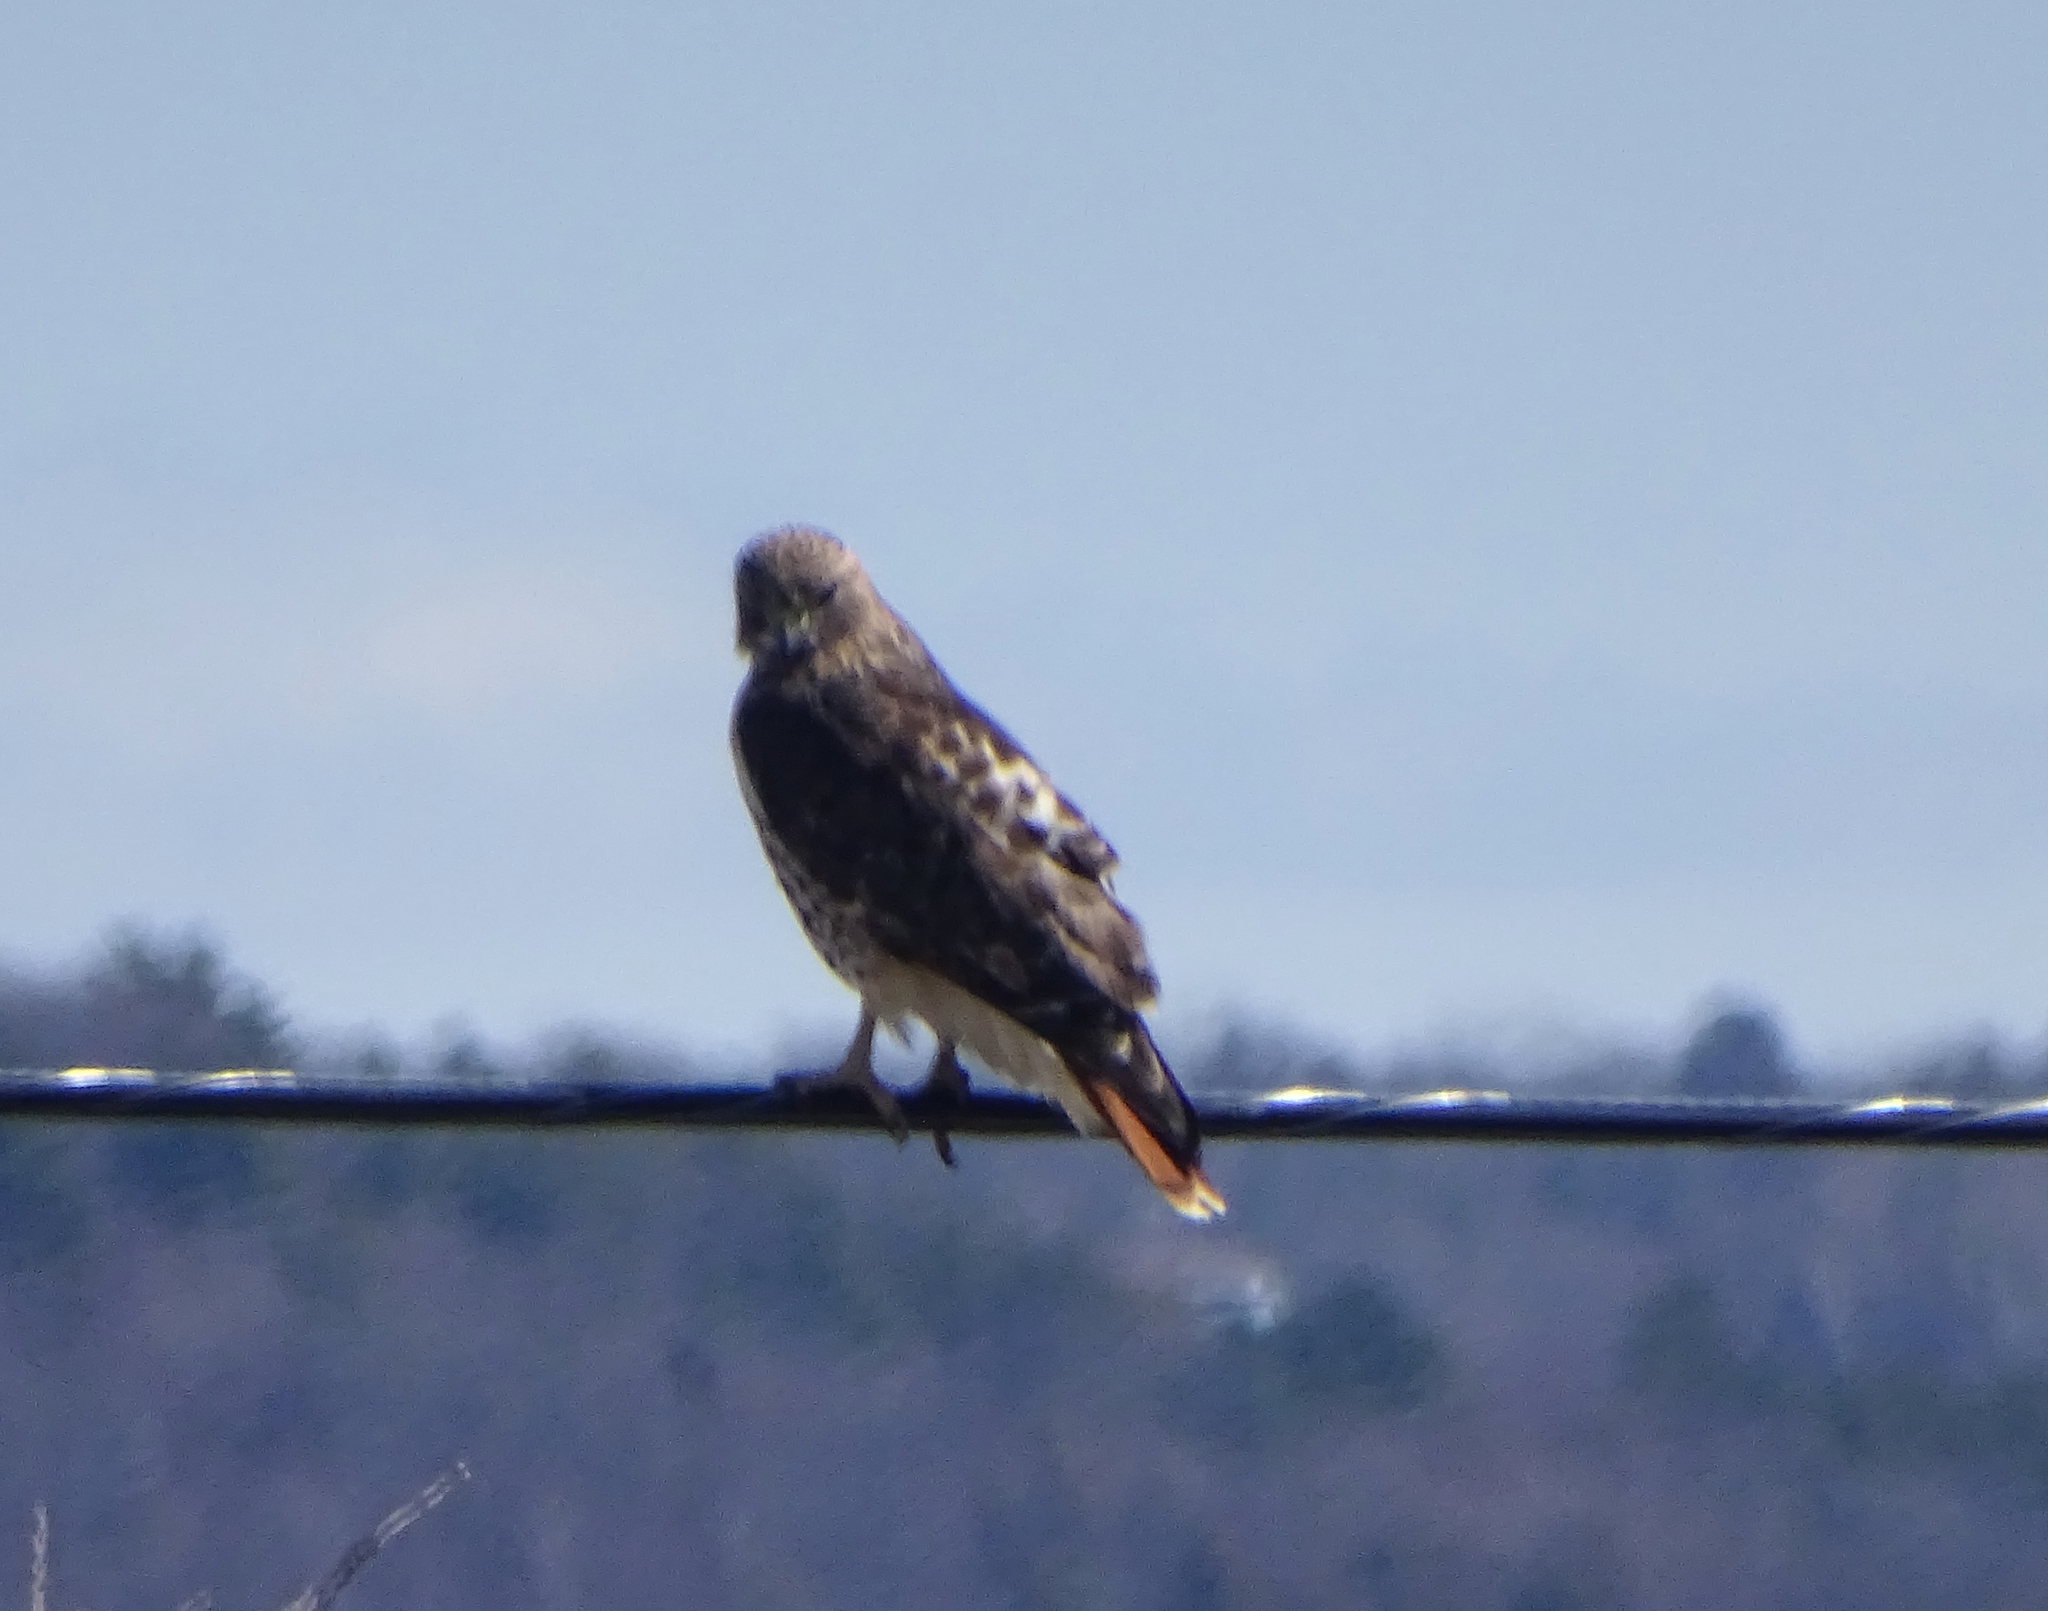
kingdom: Animalia
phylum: Chordata
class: Aves
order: Accipitriformes
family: Accipitridae
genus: Buteo
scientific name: Buteo jamaicensis
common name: Red-tailed hawk
